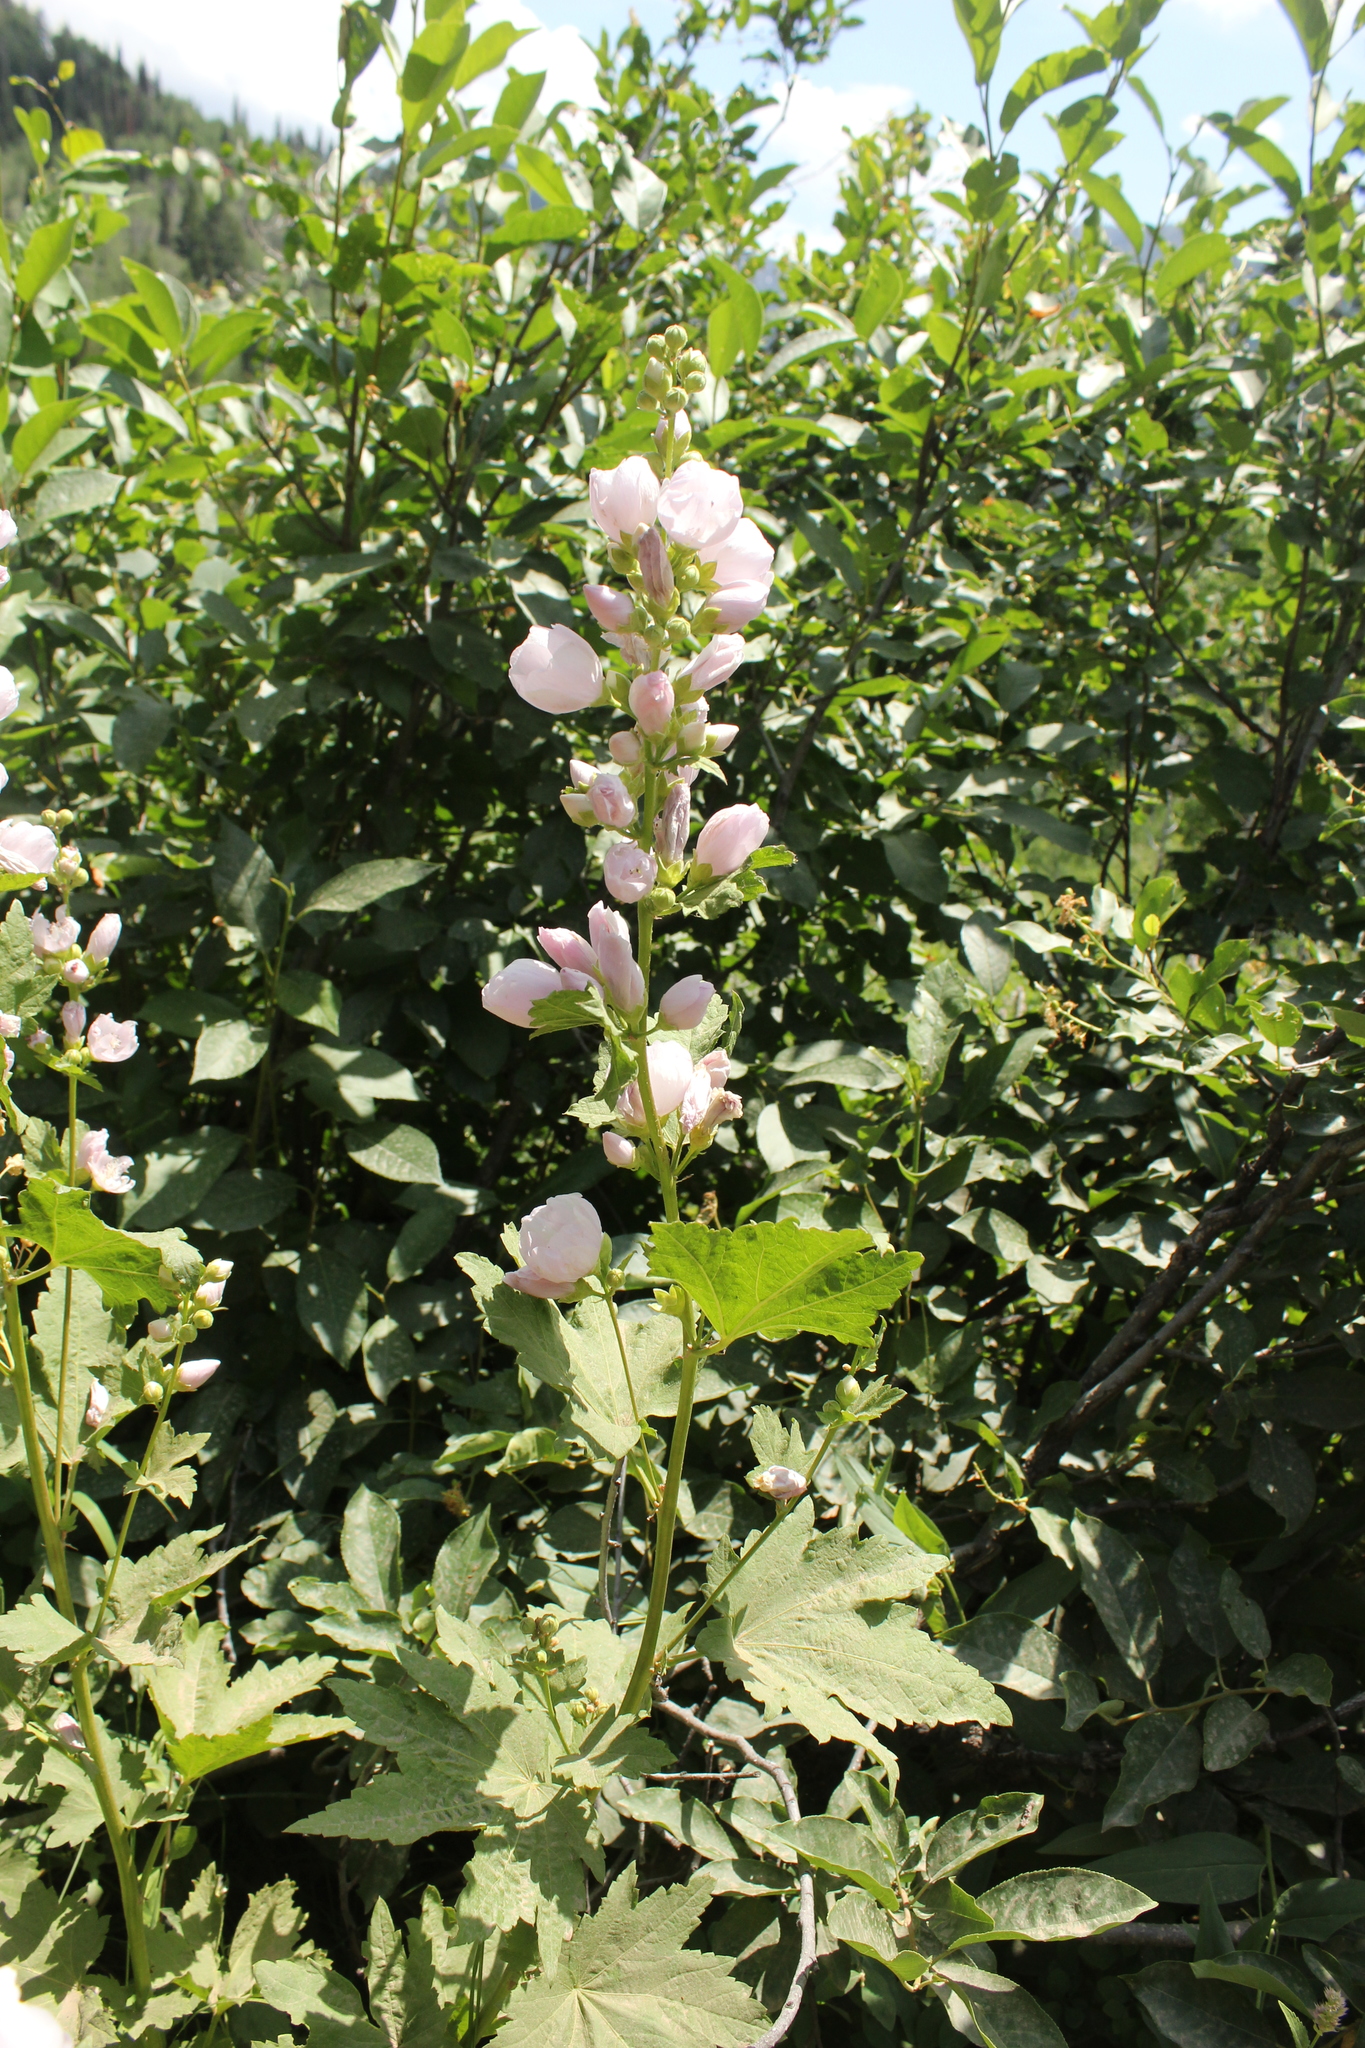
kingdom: Plantae
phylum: Tracheophyta
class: Magnoliopsida
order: Malvales
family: Malvaceae
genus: Iliamna
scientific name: Iliamna rivularis
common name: Wild hollyhock
